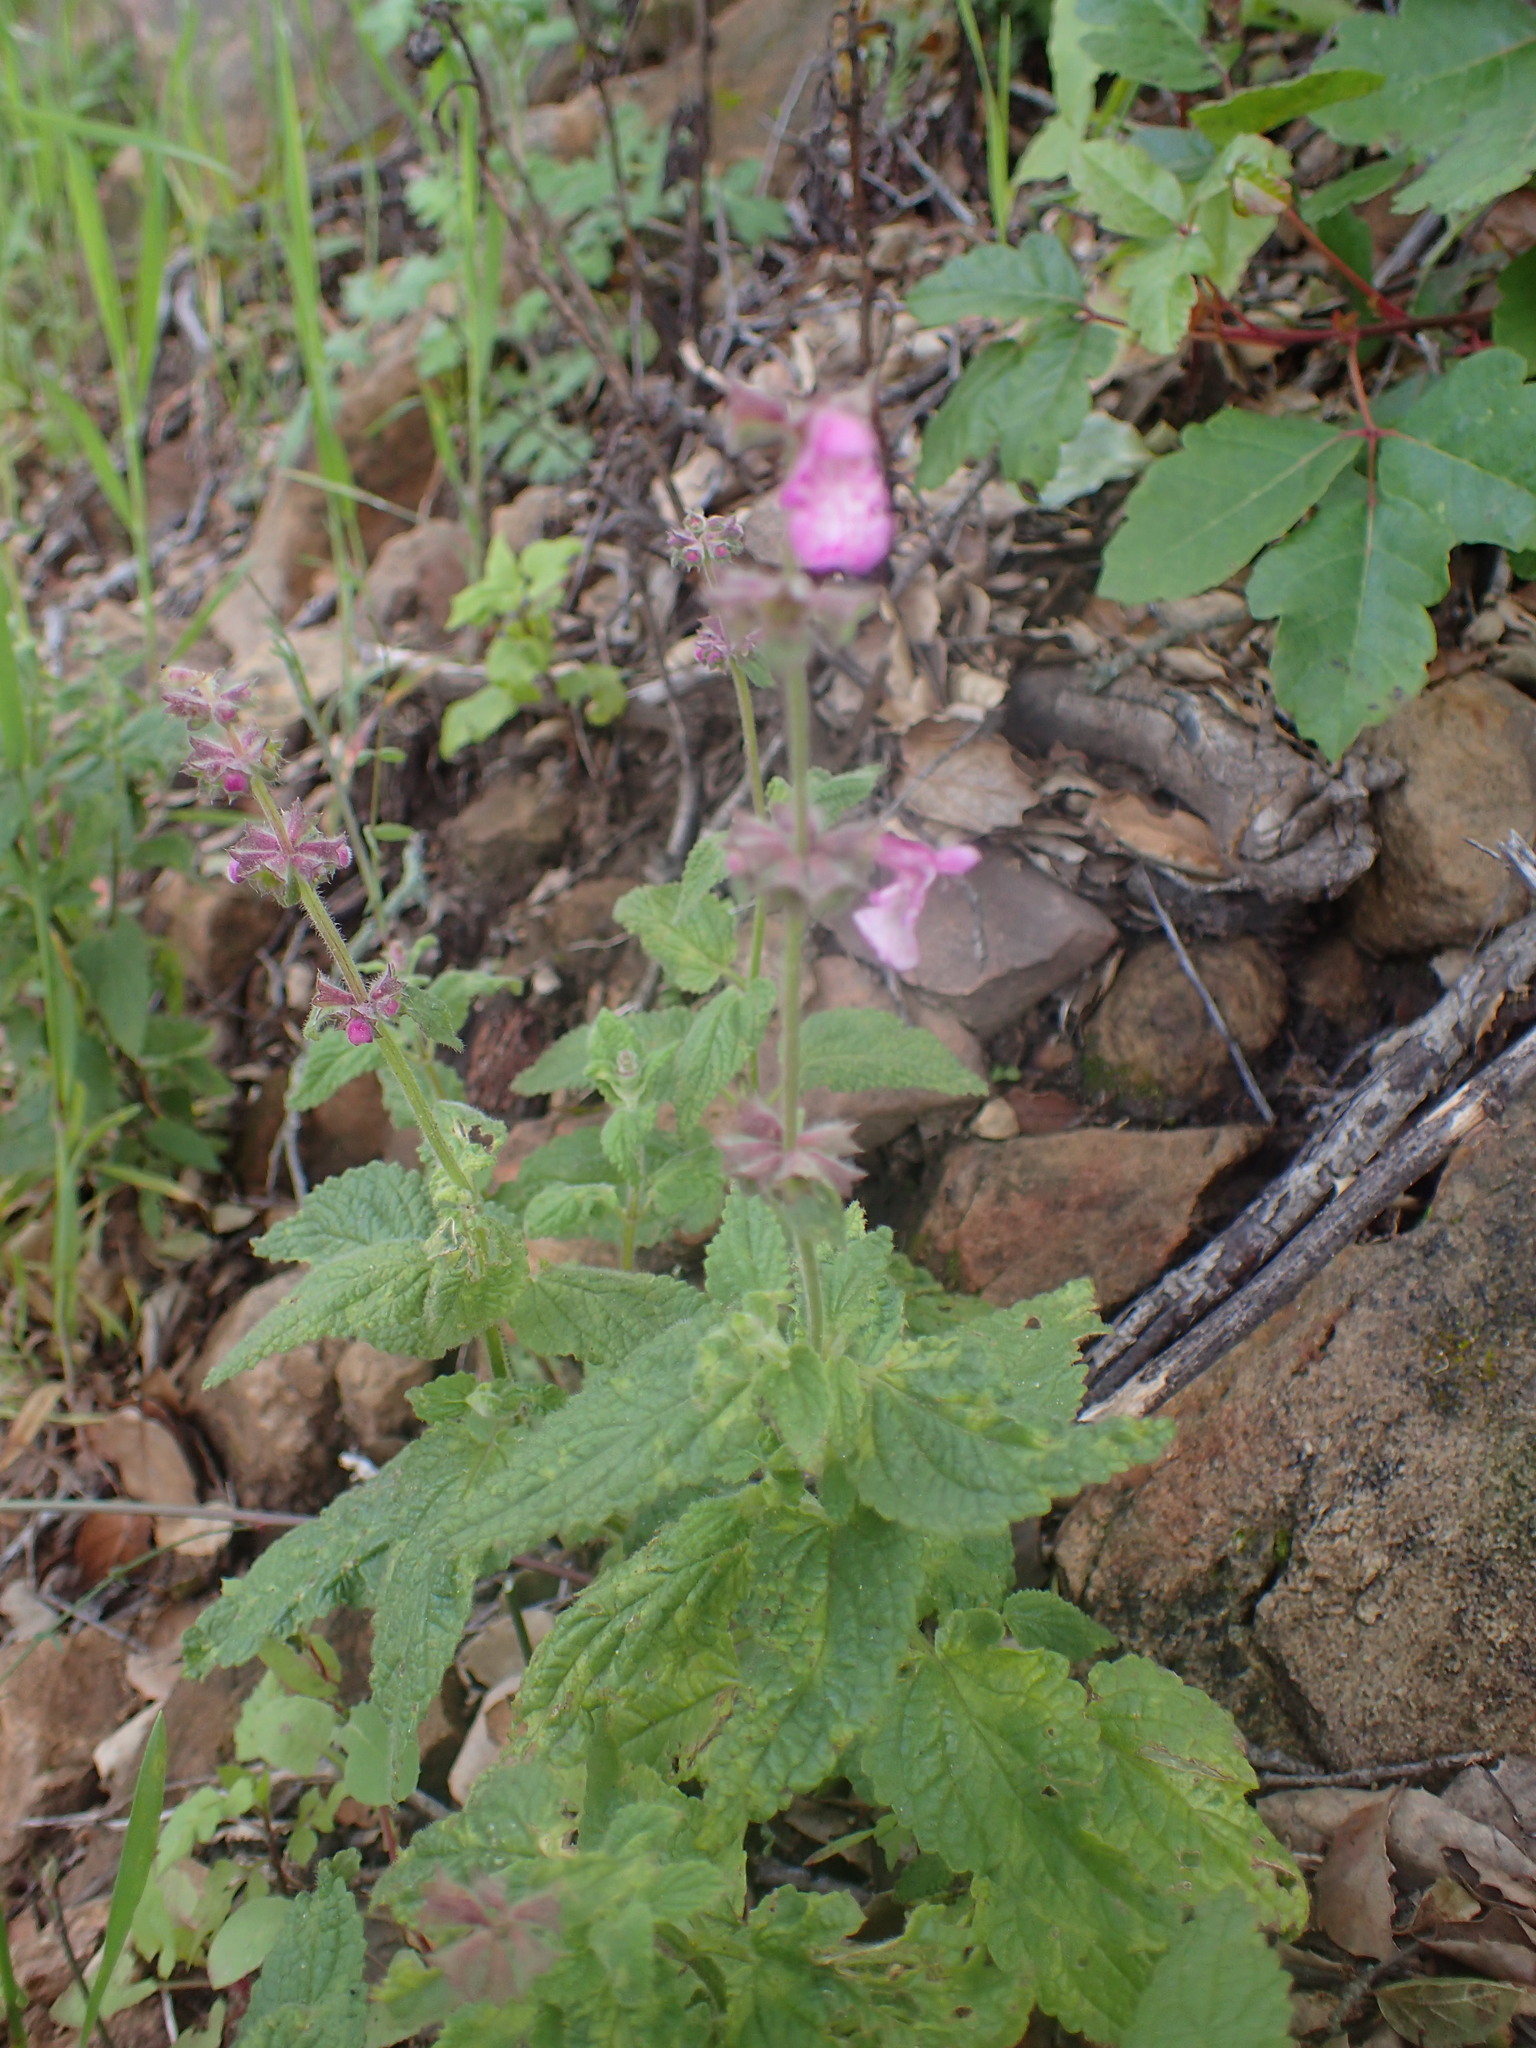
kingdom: Plantae
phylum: Tracheophyta
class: Magnoliopsida
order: Lamiales
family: Lamiaceae
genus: Stachys
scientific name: Stachys bullata
